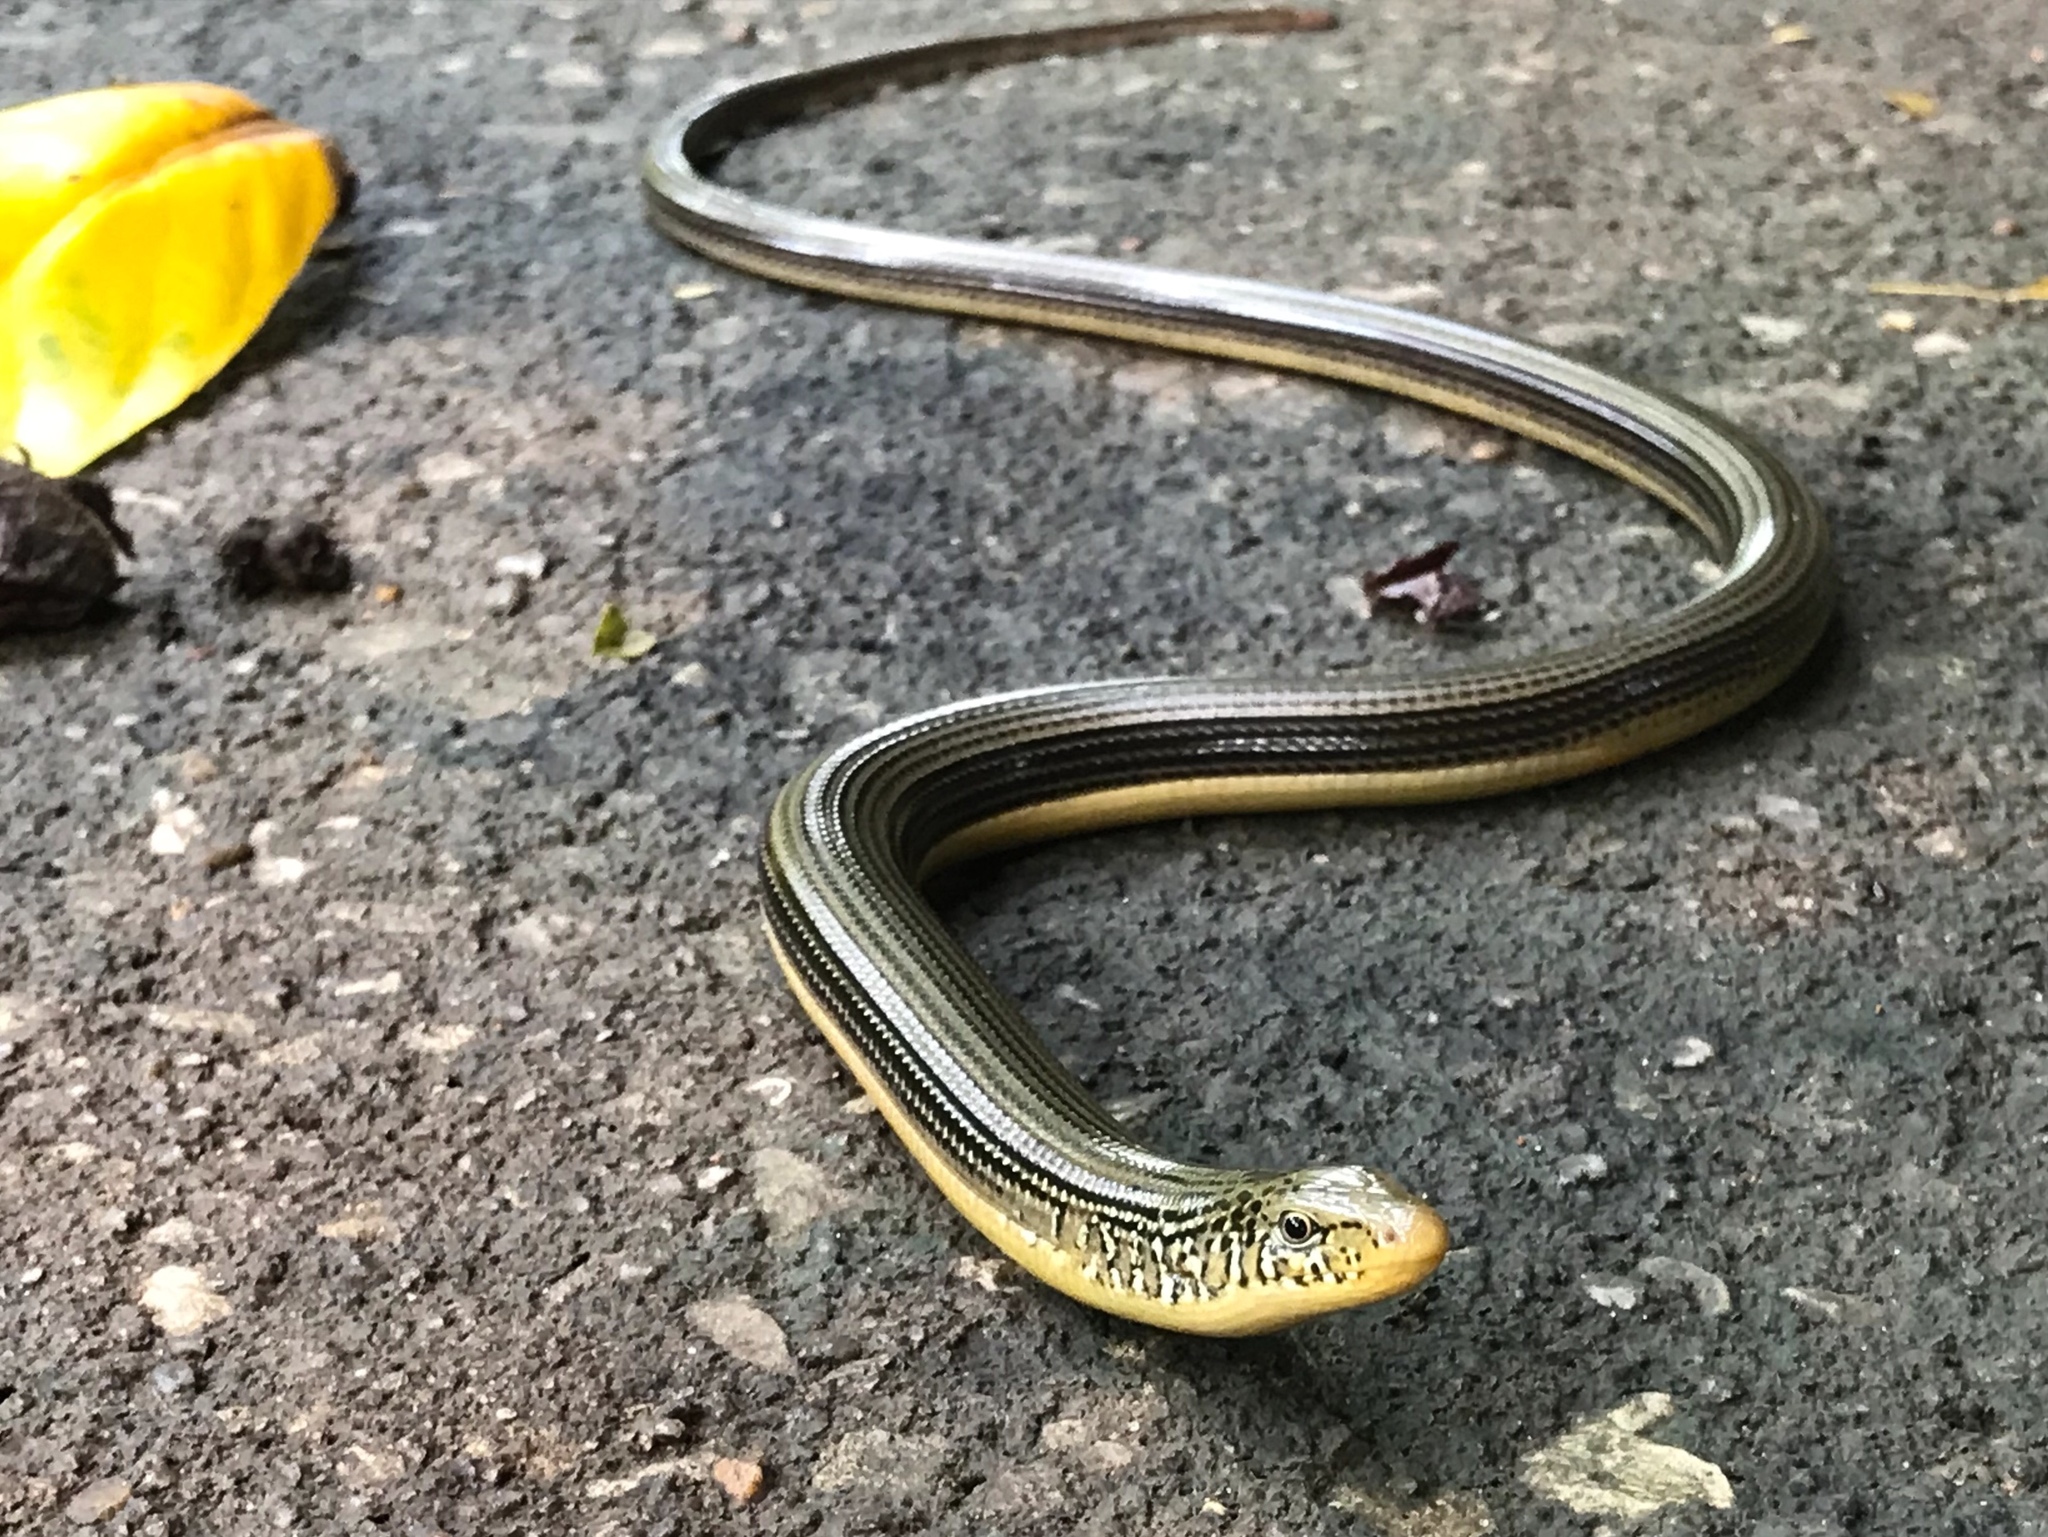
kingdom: Animalia
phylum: Chordata
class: Squamata
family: Anguidae
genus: Ophisaurus
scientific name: Ophisaurus ventralis
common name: Eastern glass lizard
